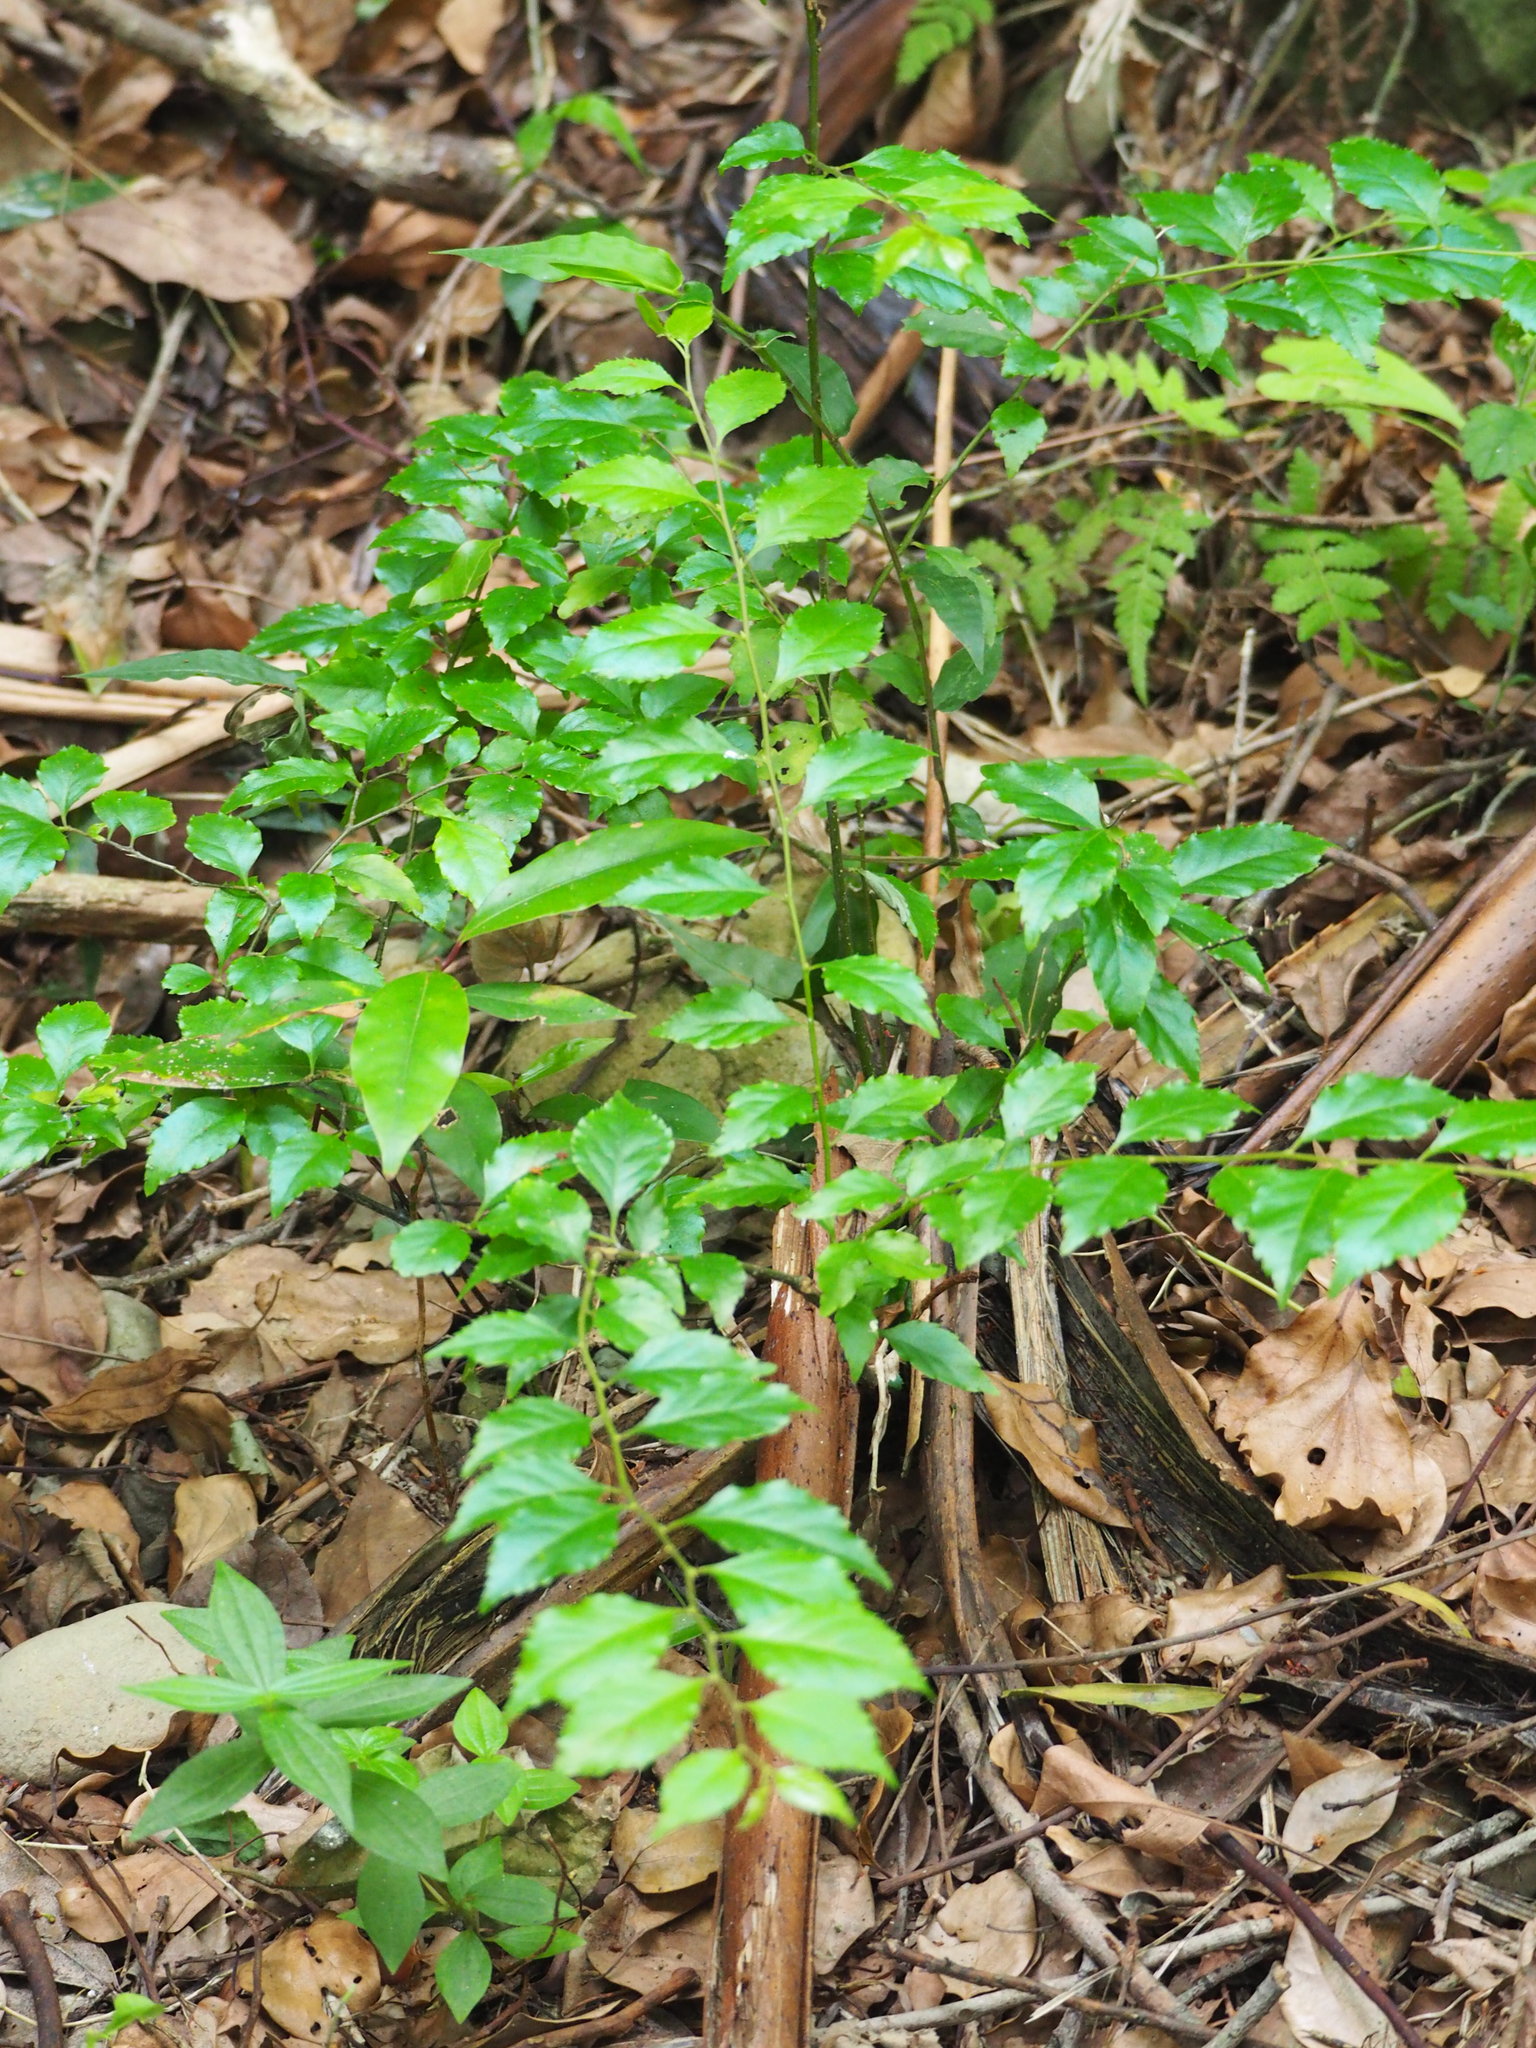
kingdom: Plantae
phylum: Tracheophyta
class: Magnoliopsida
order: Aquifoliales
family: Aquifoliaceae
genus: Ilex
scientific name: Ilex asprella
